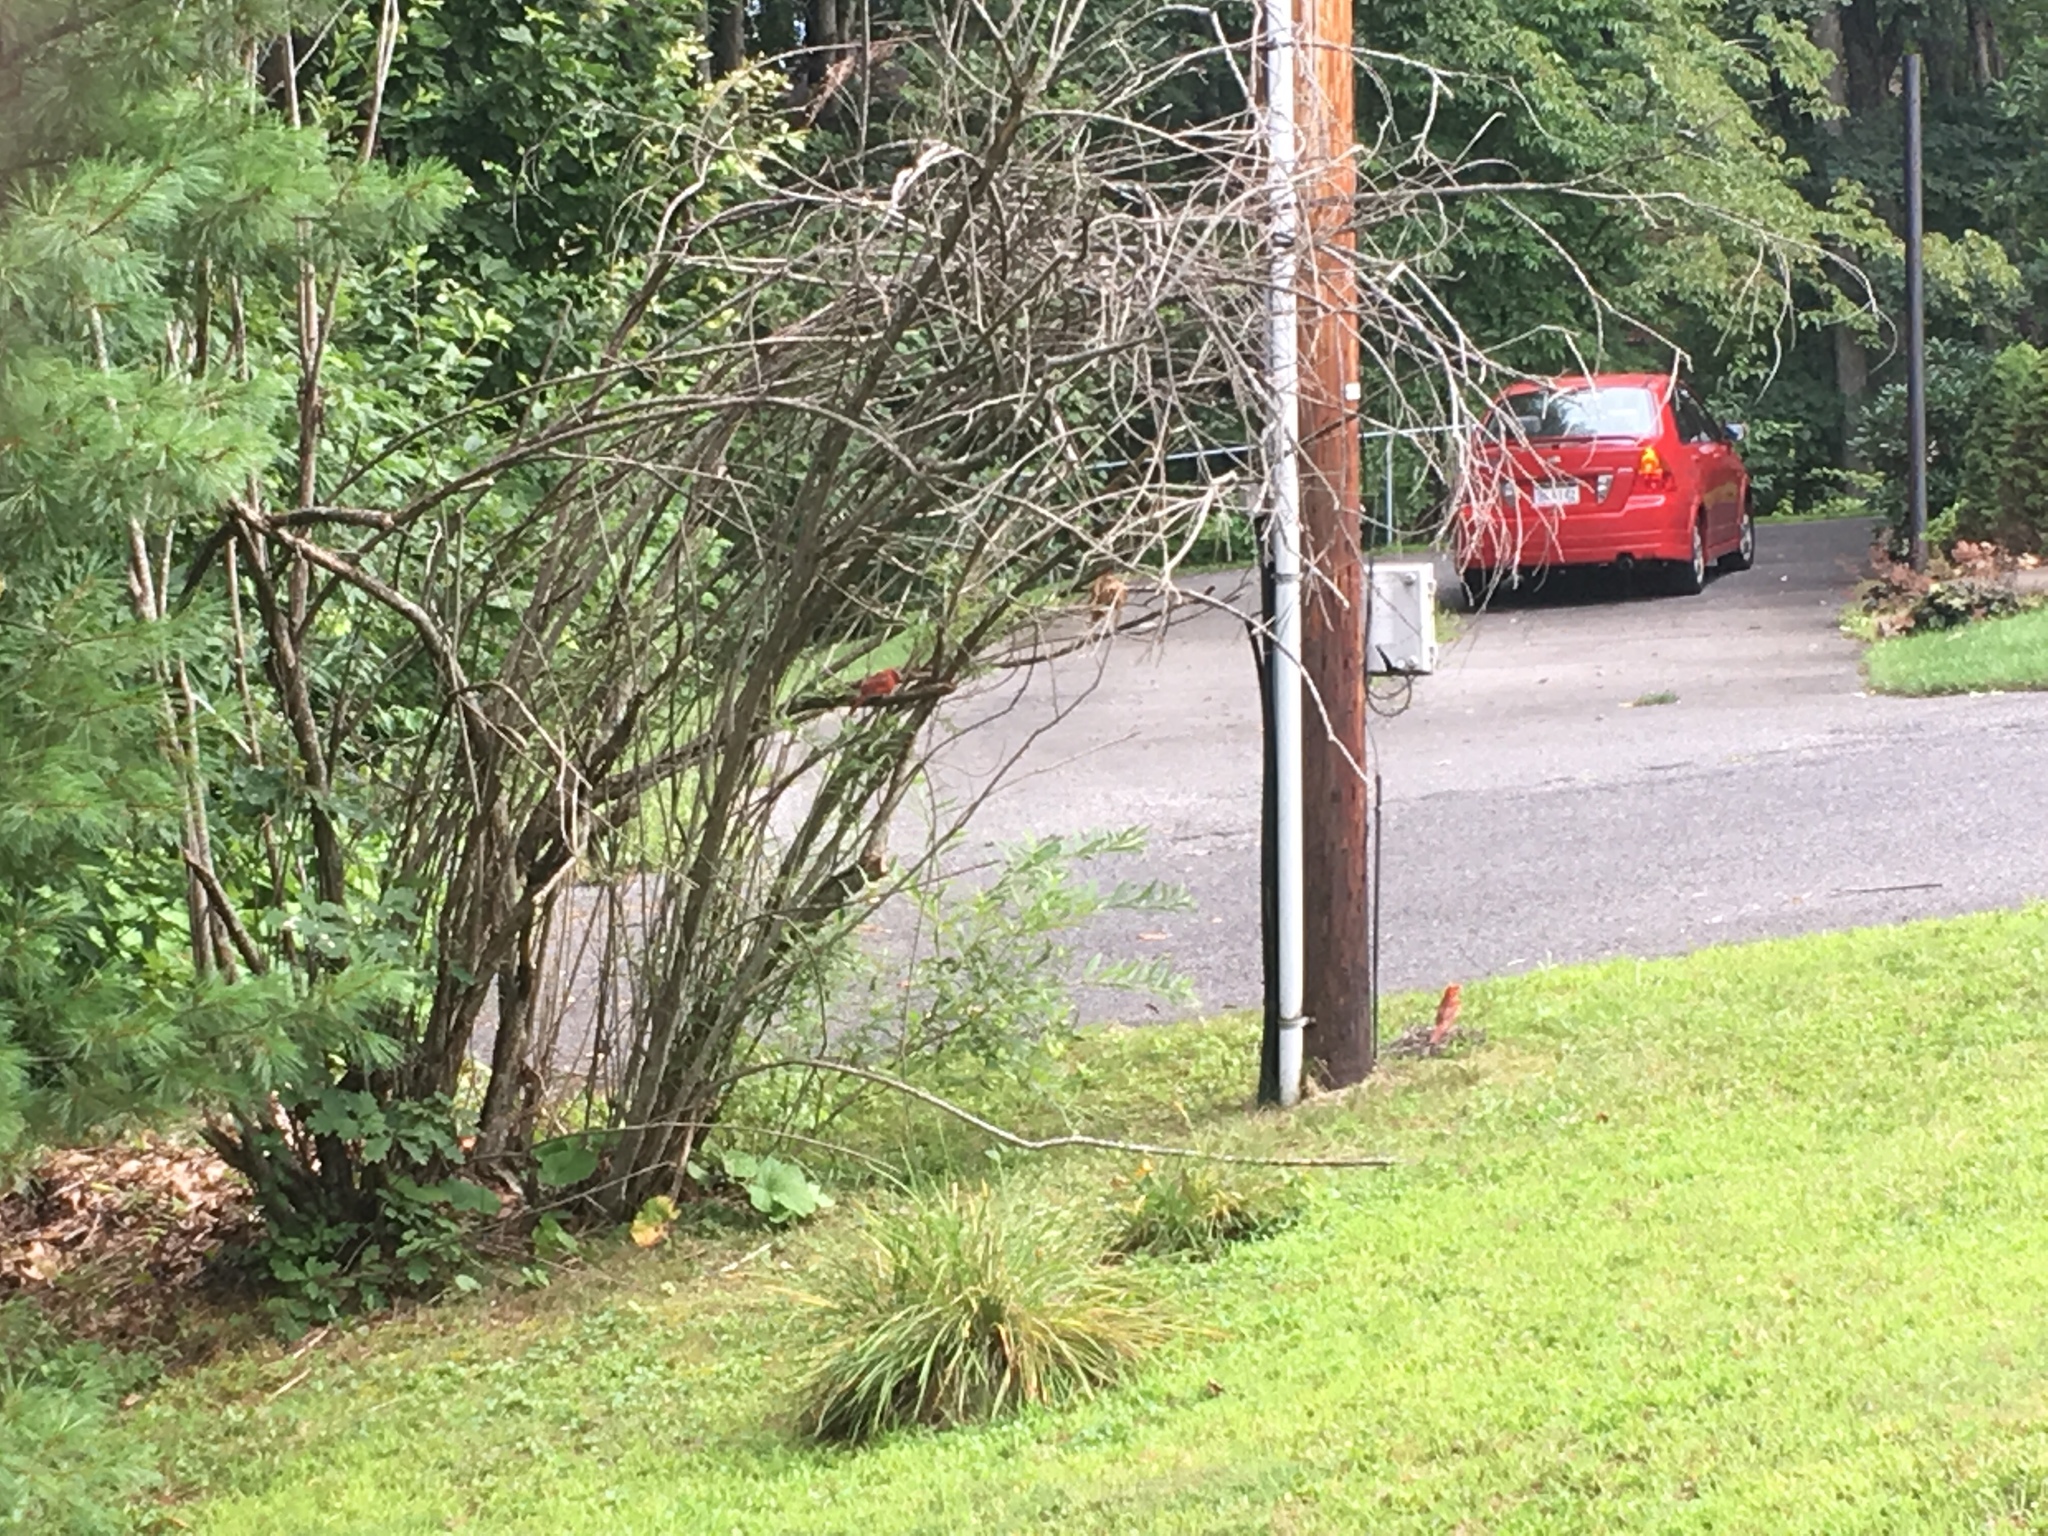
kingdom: Animalia
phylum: Chordata
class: Aves
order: Passeriformes
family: Cardinalidae
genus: Cardinalis
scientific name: Cardinalis cardinalis
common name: Northern cardinal
